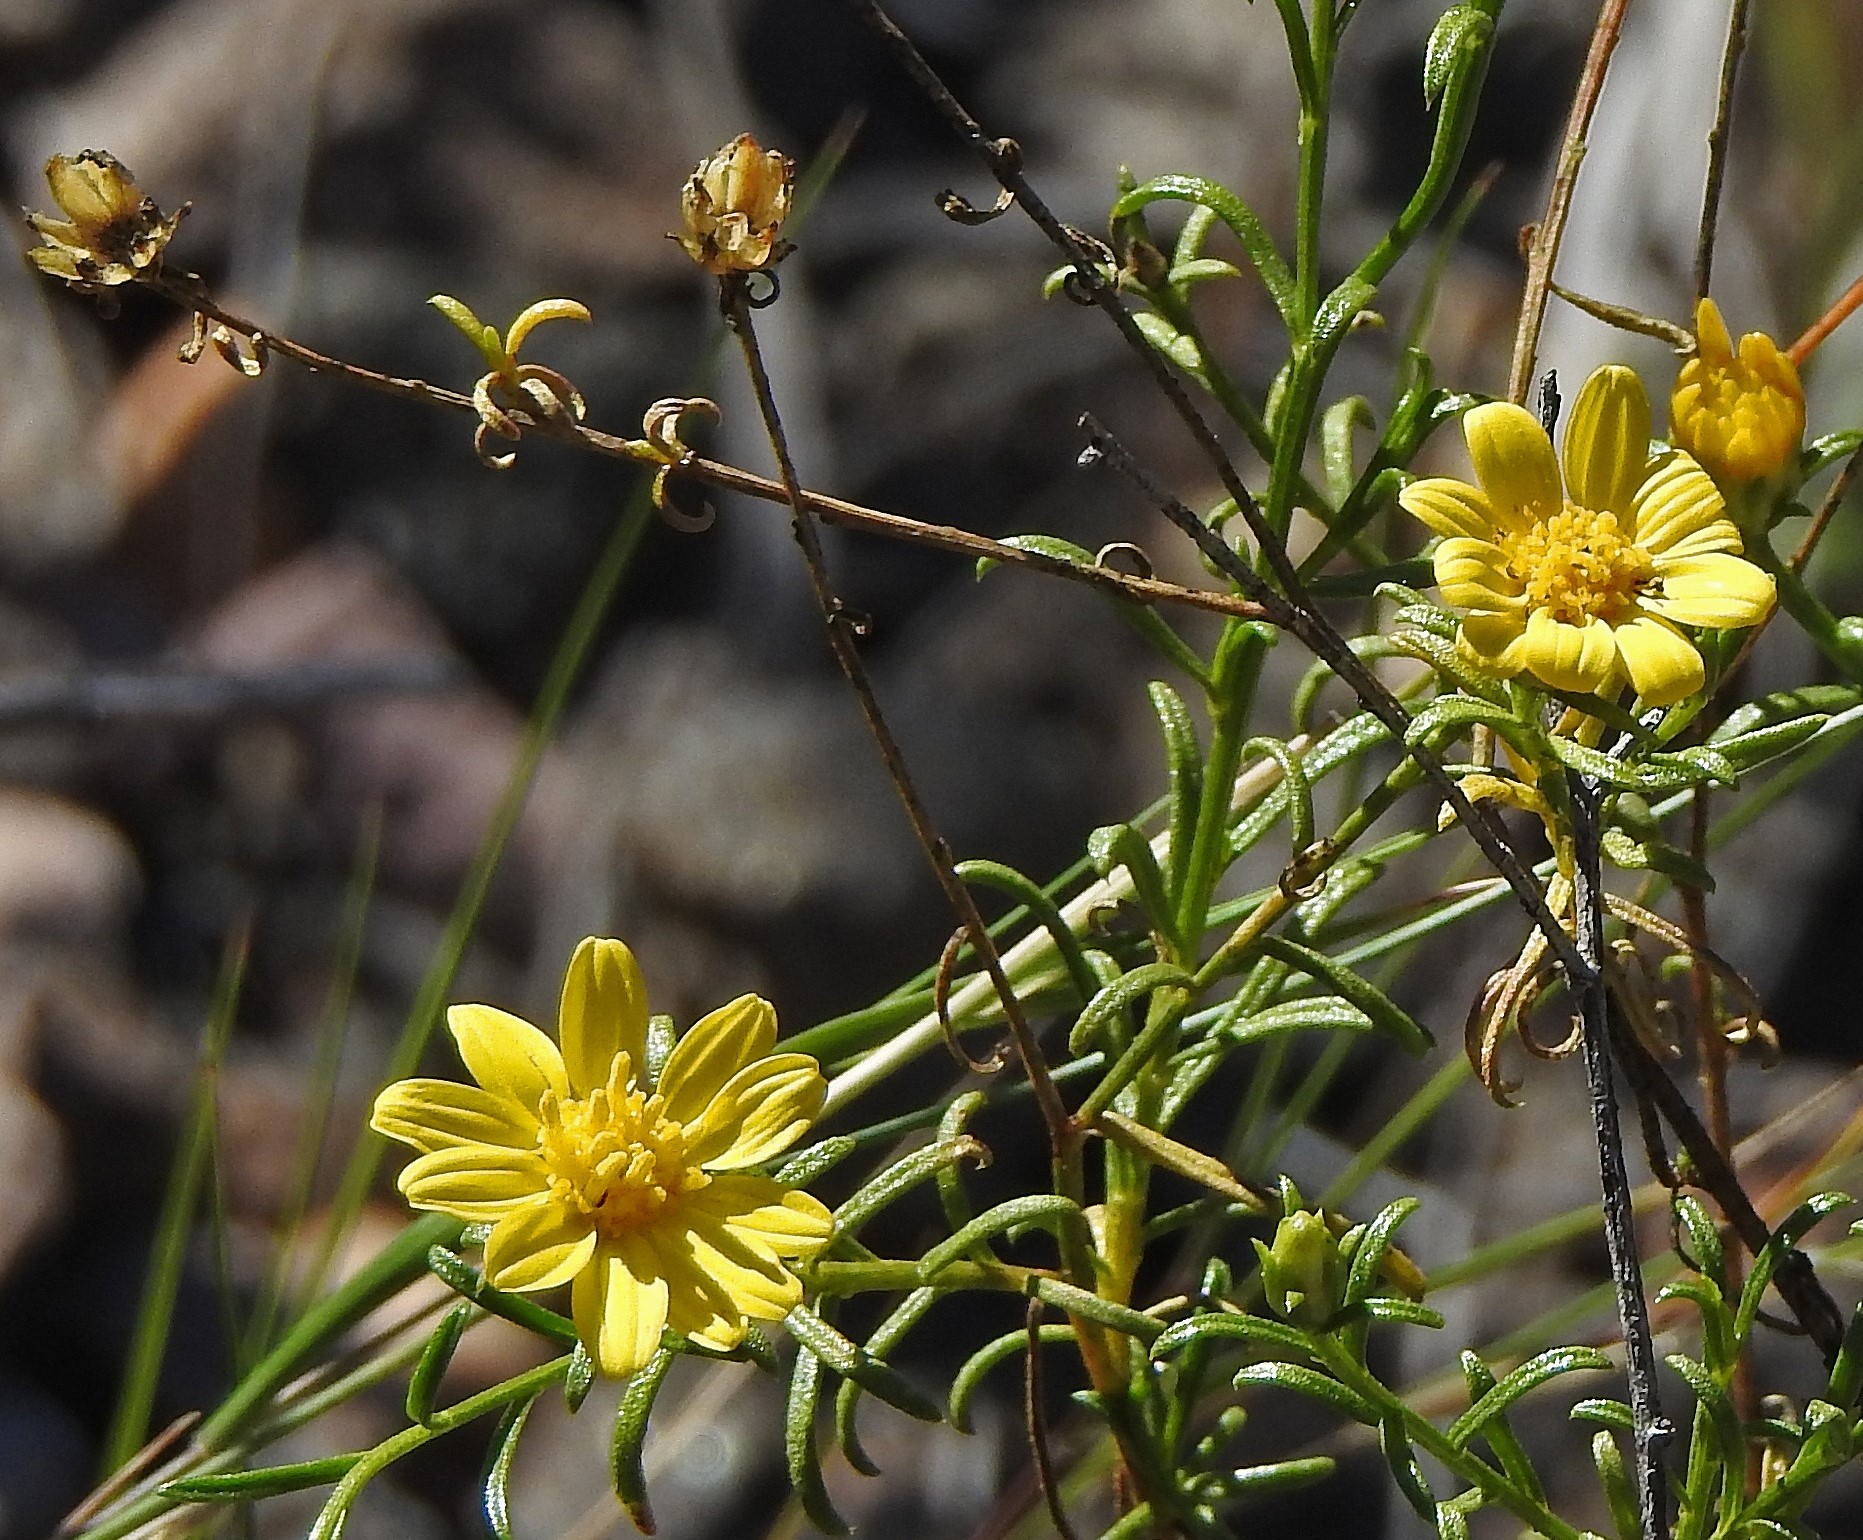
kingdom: Plantae
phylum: Tracheophyta
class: Magnoliopsida
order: Asterales
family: Asteraceae
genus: Gutierrezia
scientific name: Gutierrezia mandonii
